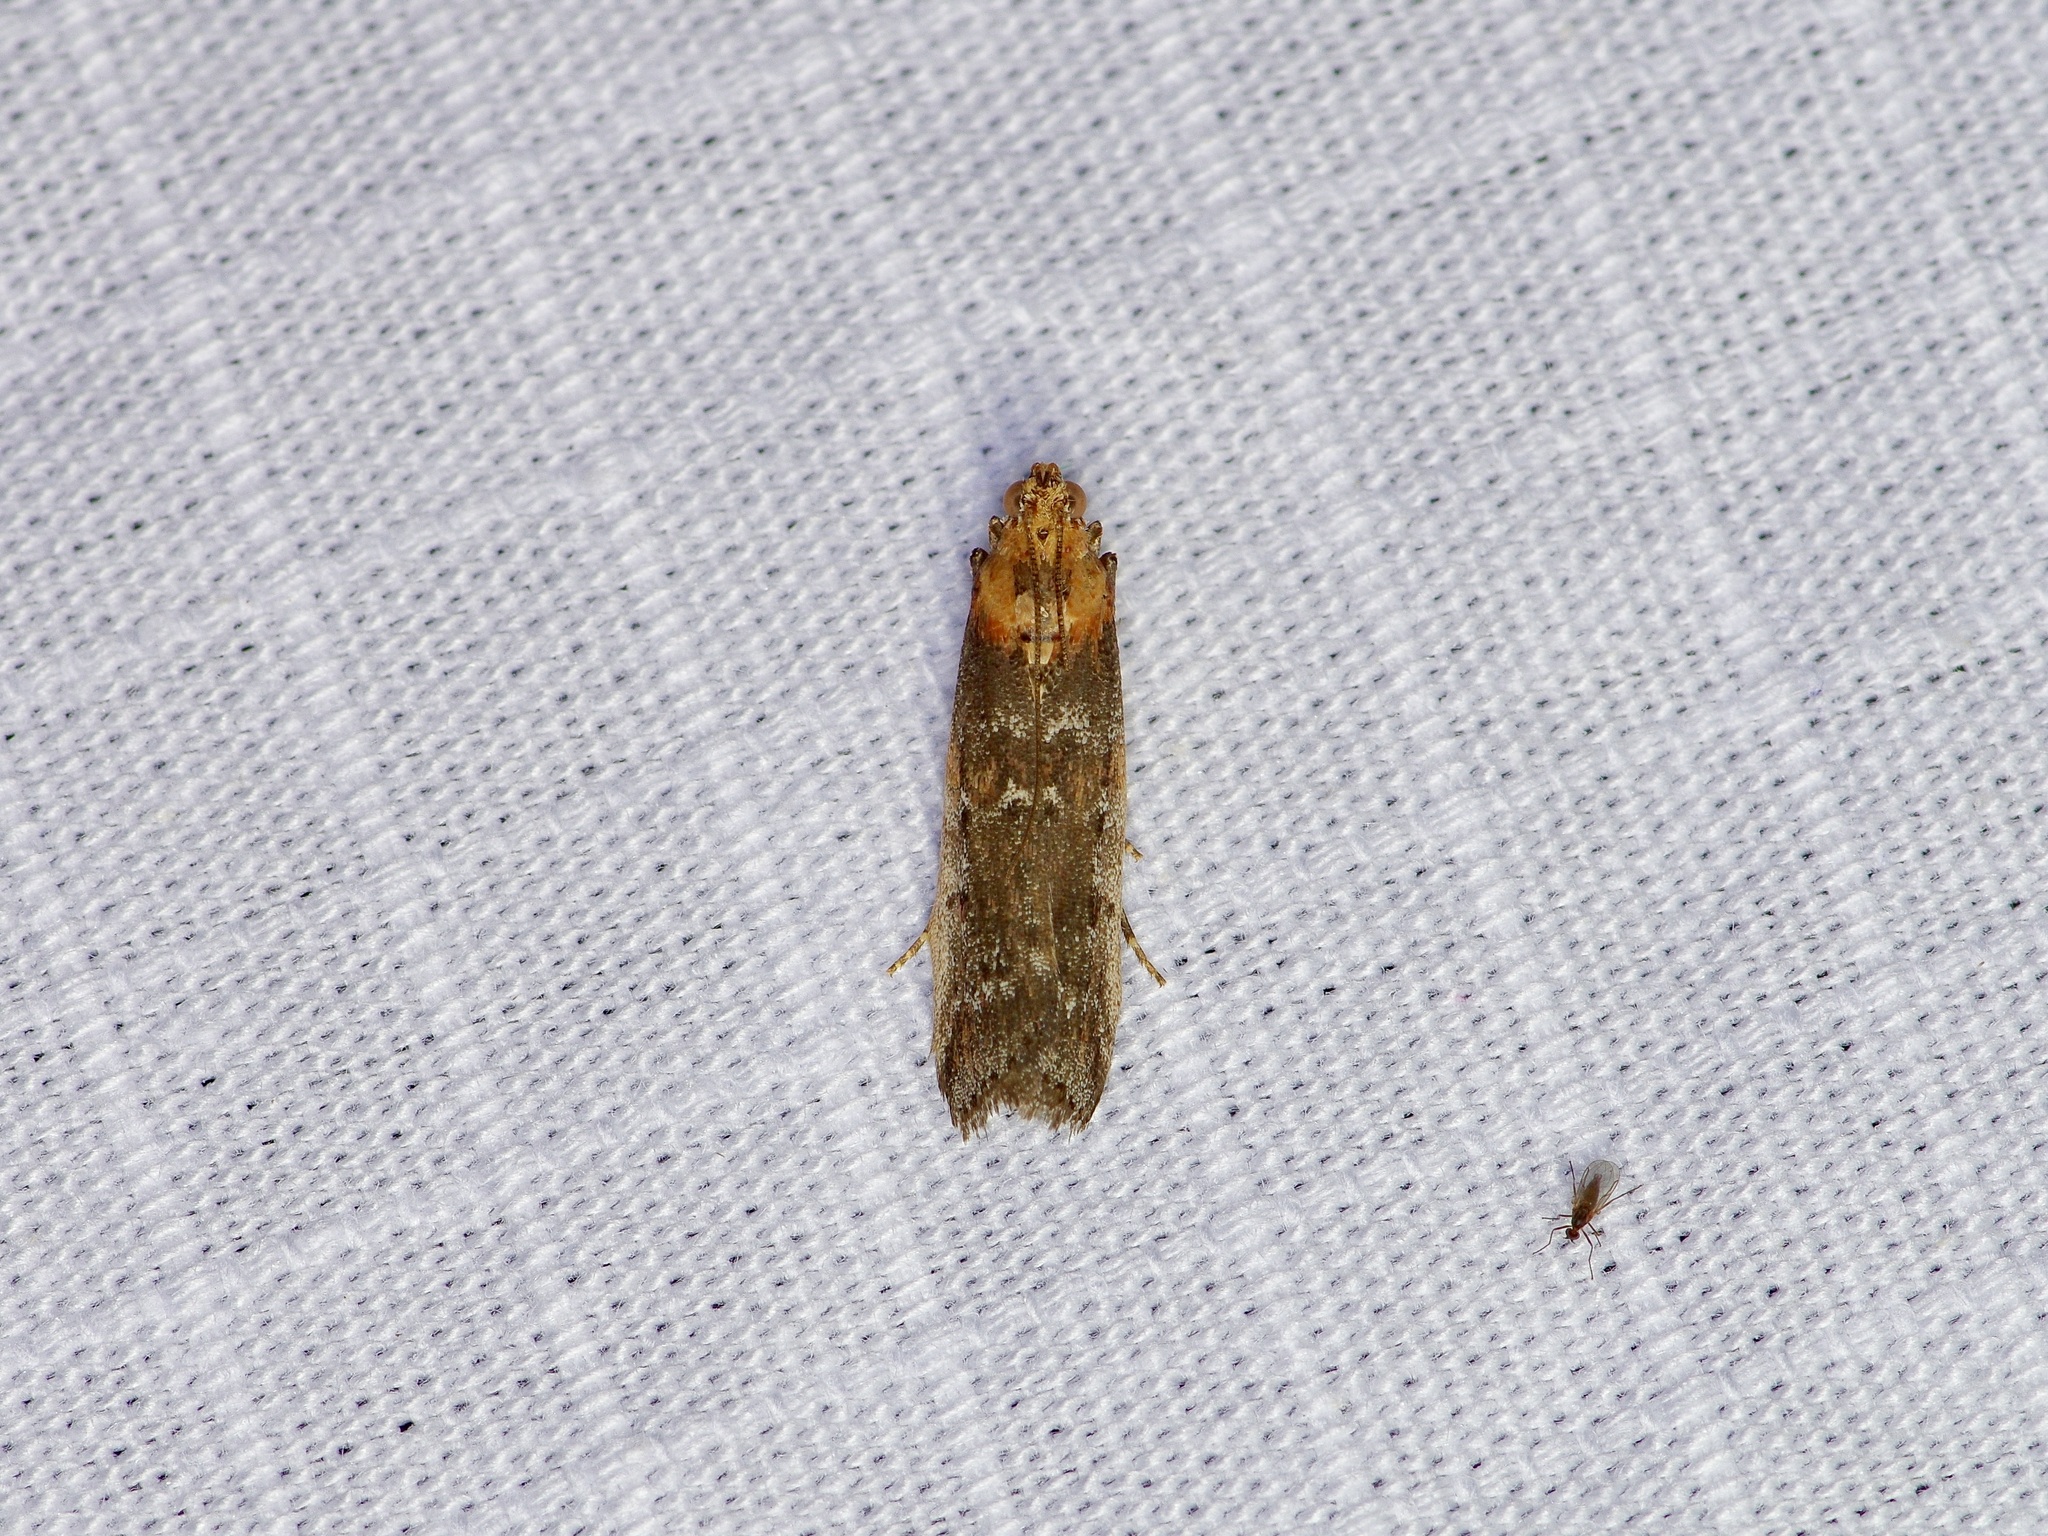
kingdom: Animalia
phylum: Arthropoda
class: Insecta
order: Lepidoptera
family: Pyralidae
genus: Adelphia
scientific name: Adelphia petrella
